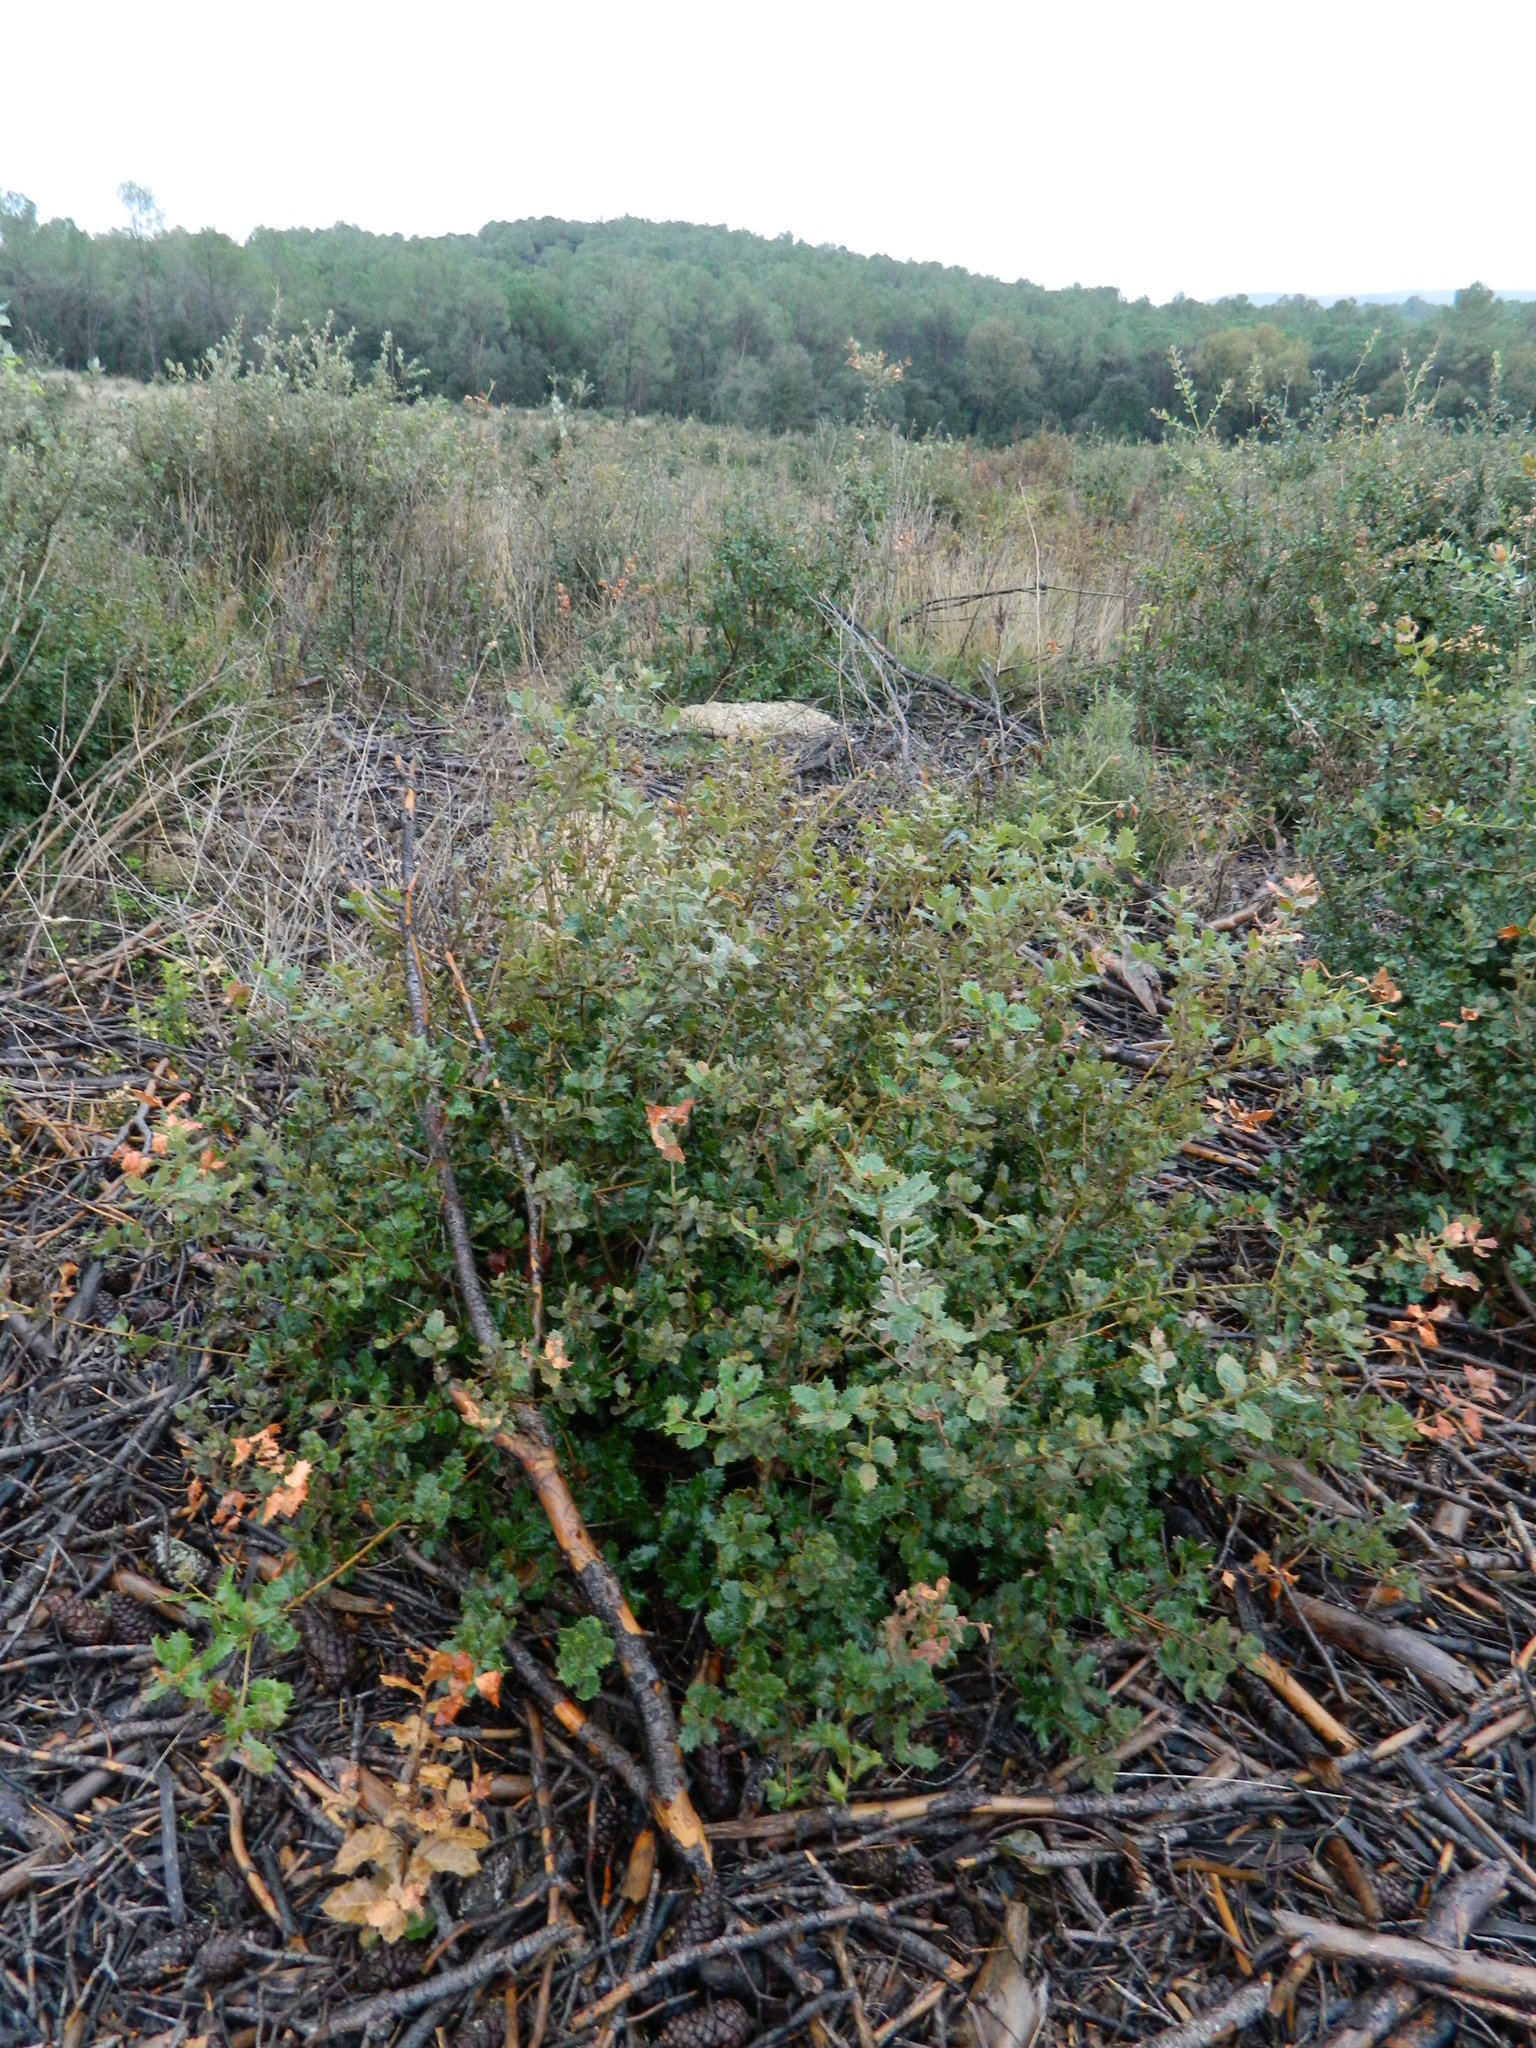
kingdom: Plantae
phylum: Tracheophyta
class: Magnoliopsida
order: Fagales
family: Fagaceae
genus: Quercus
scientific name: Quercus ilex
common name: Evergreen oak
